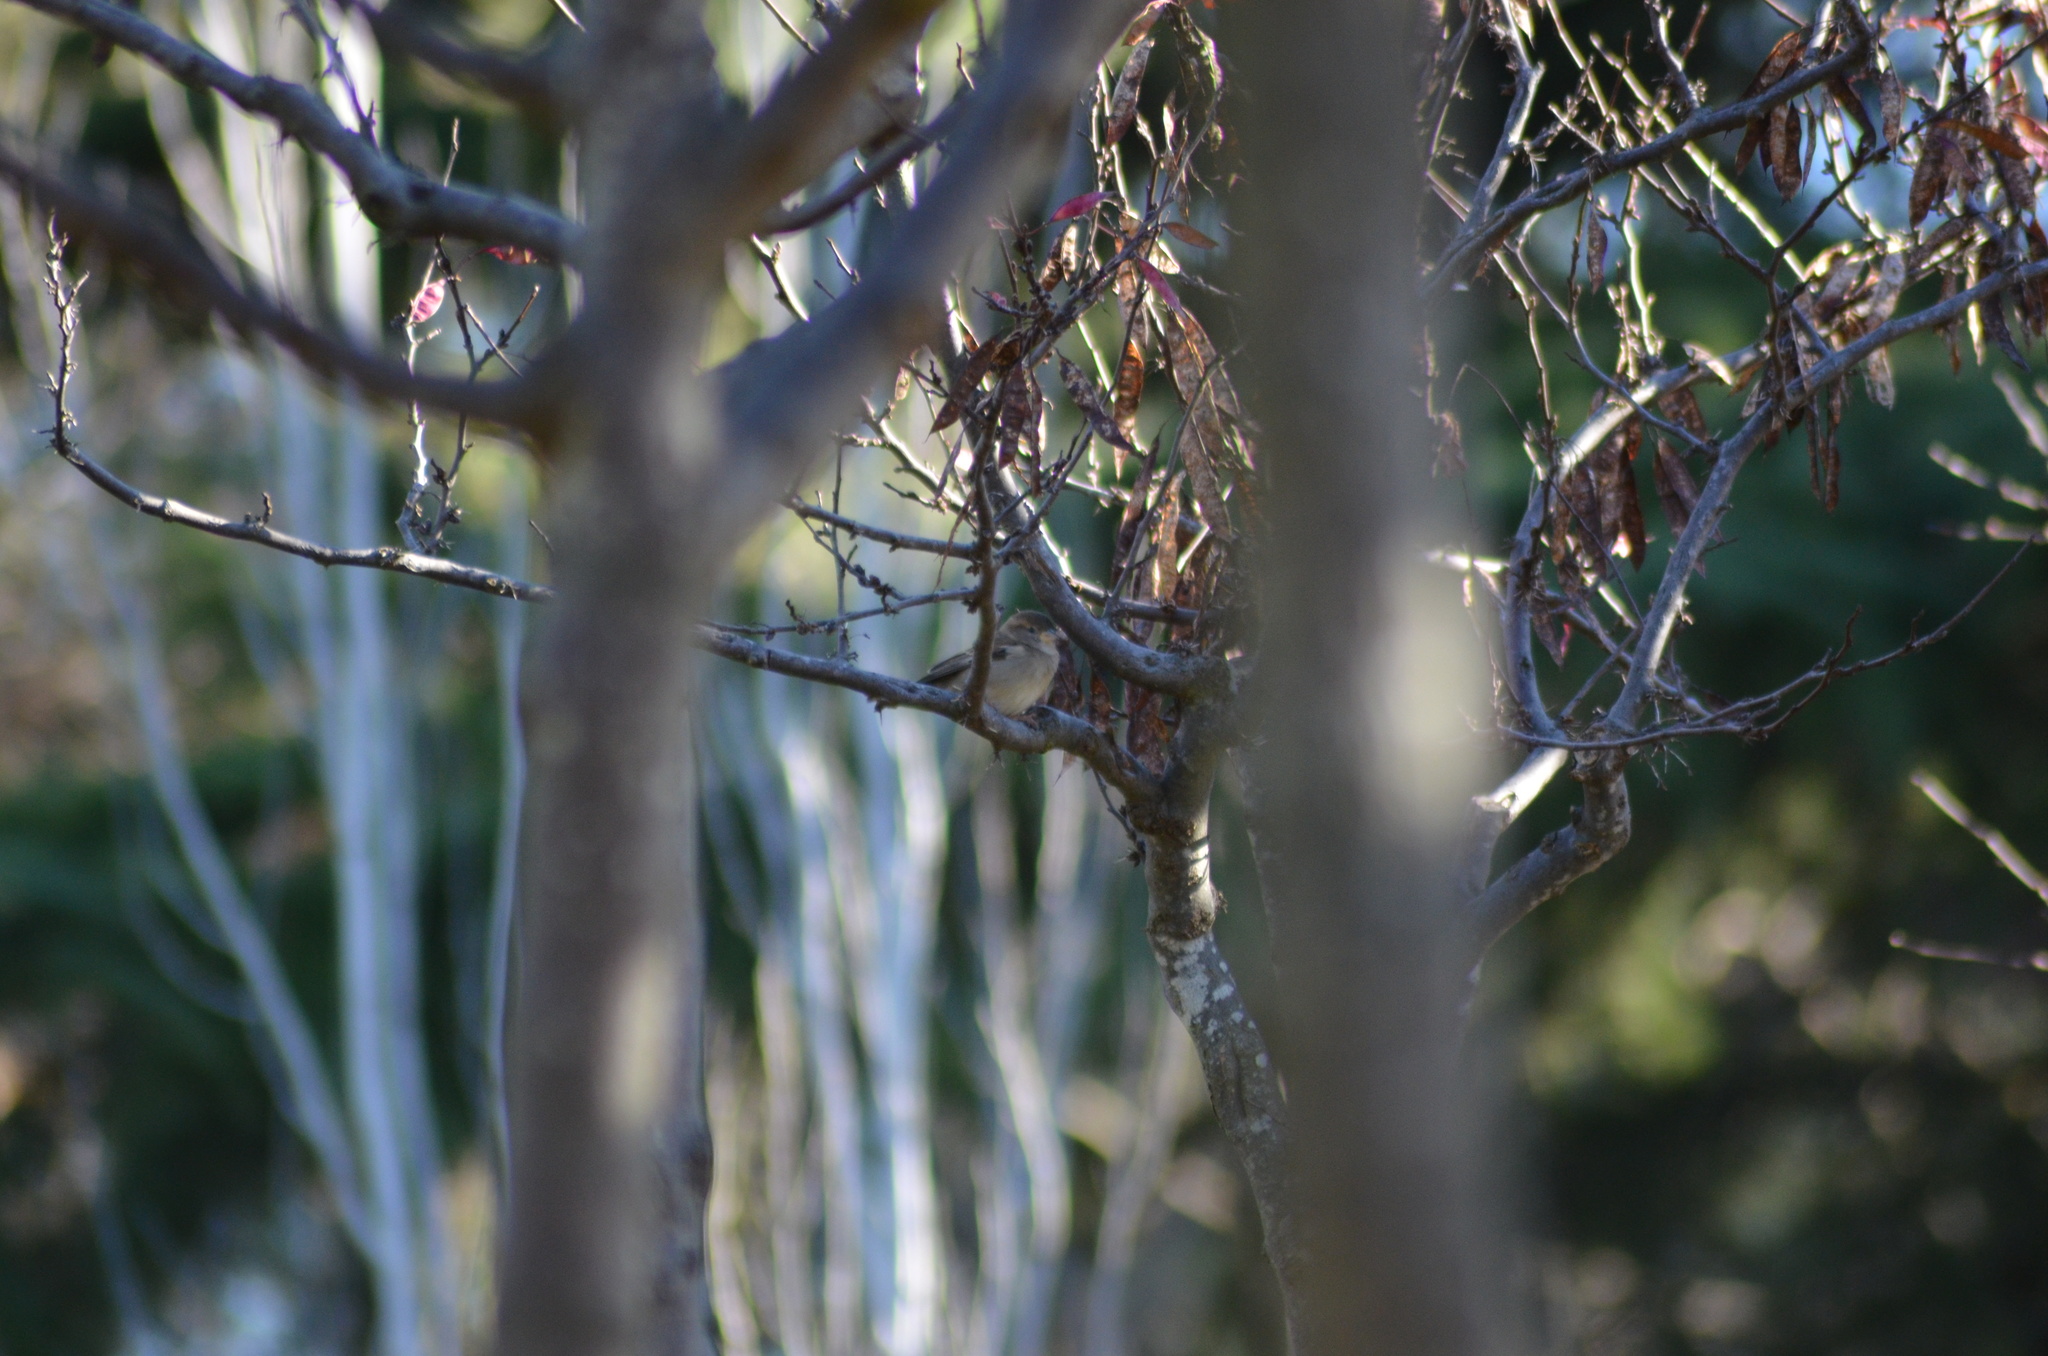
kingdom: Animalia
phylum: Chordata
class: Aves
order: Passeriformes
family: Passeridae
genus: Passer
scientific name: Passer domesticus
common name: House sparrow
